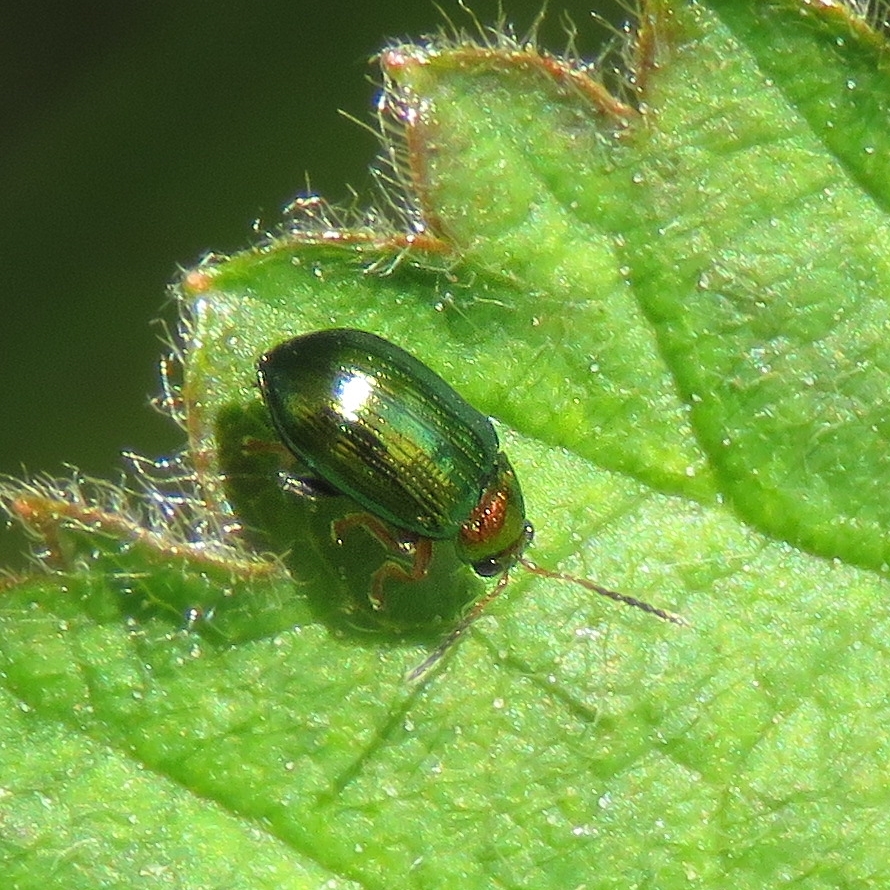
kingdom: Animalia
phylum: Arthropoda
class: Insecta
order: Coleoptera
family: Chrysomelidae
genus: Crepidodera
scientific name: Crepidodera aurata
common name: Willow flea beetle
